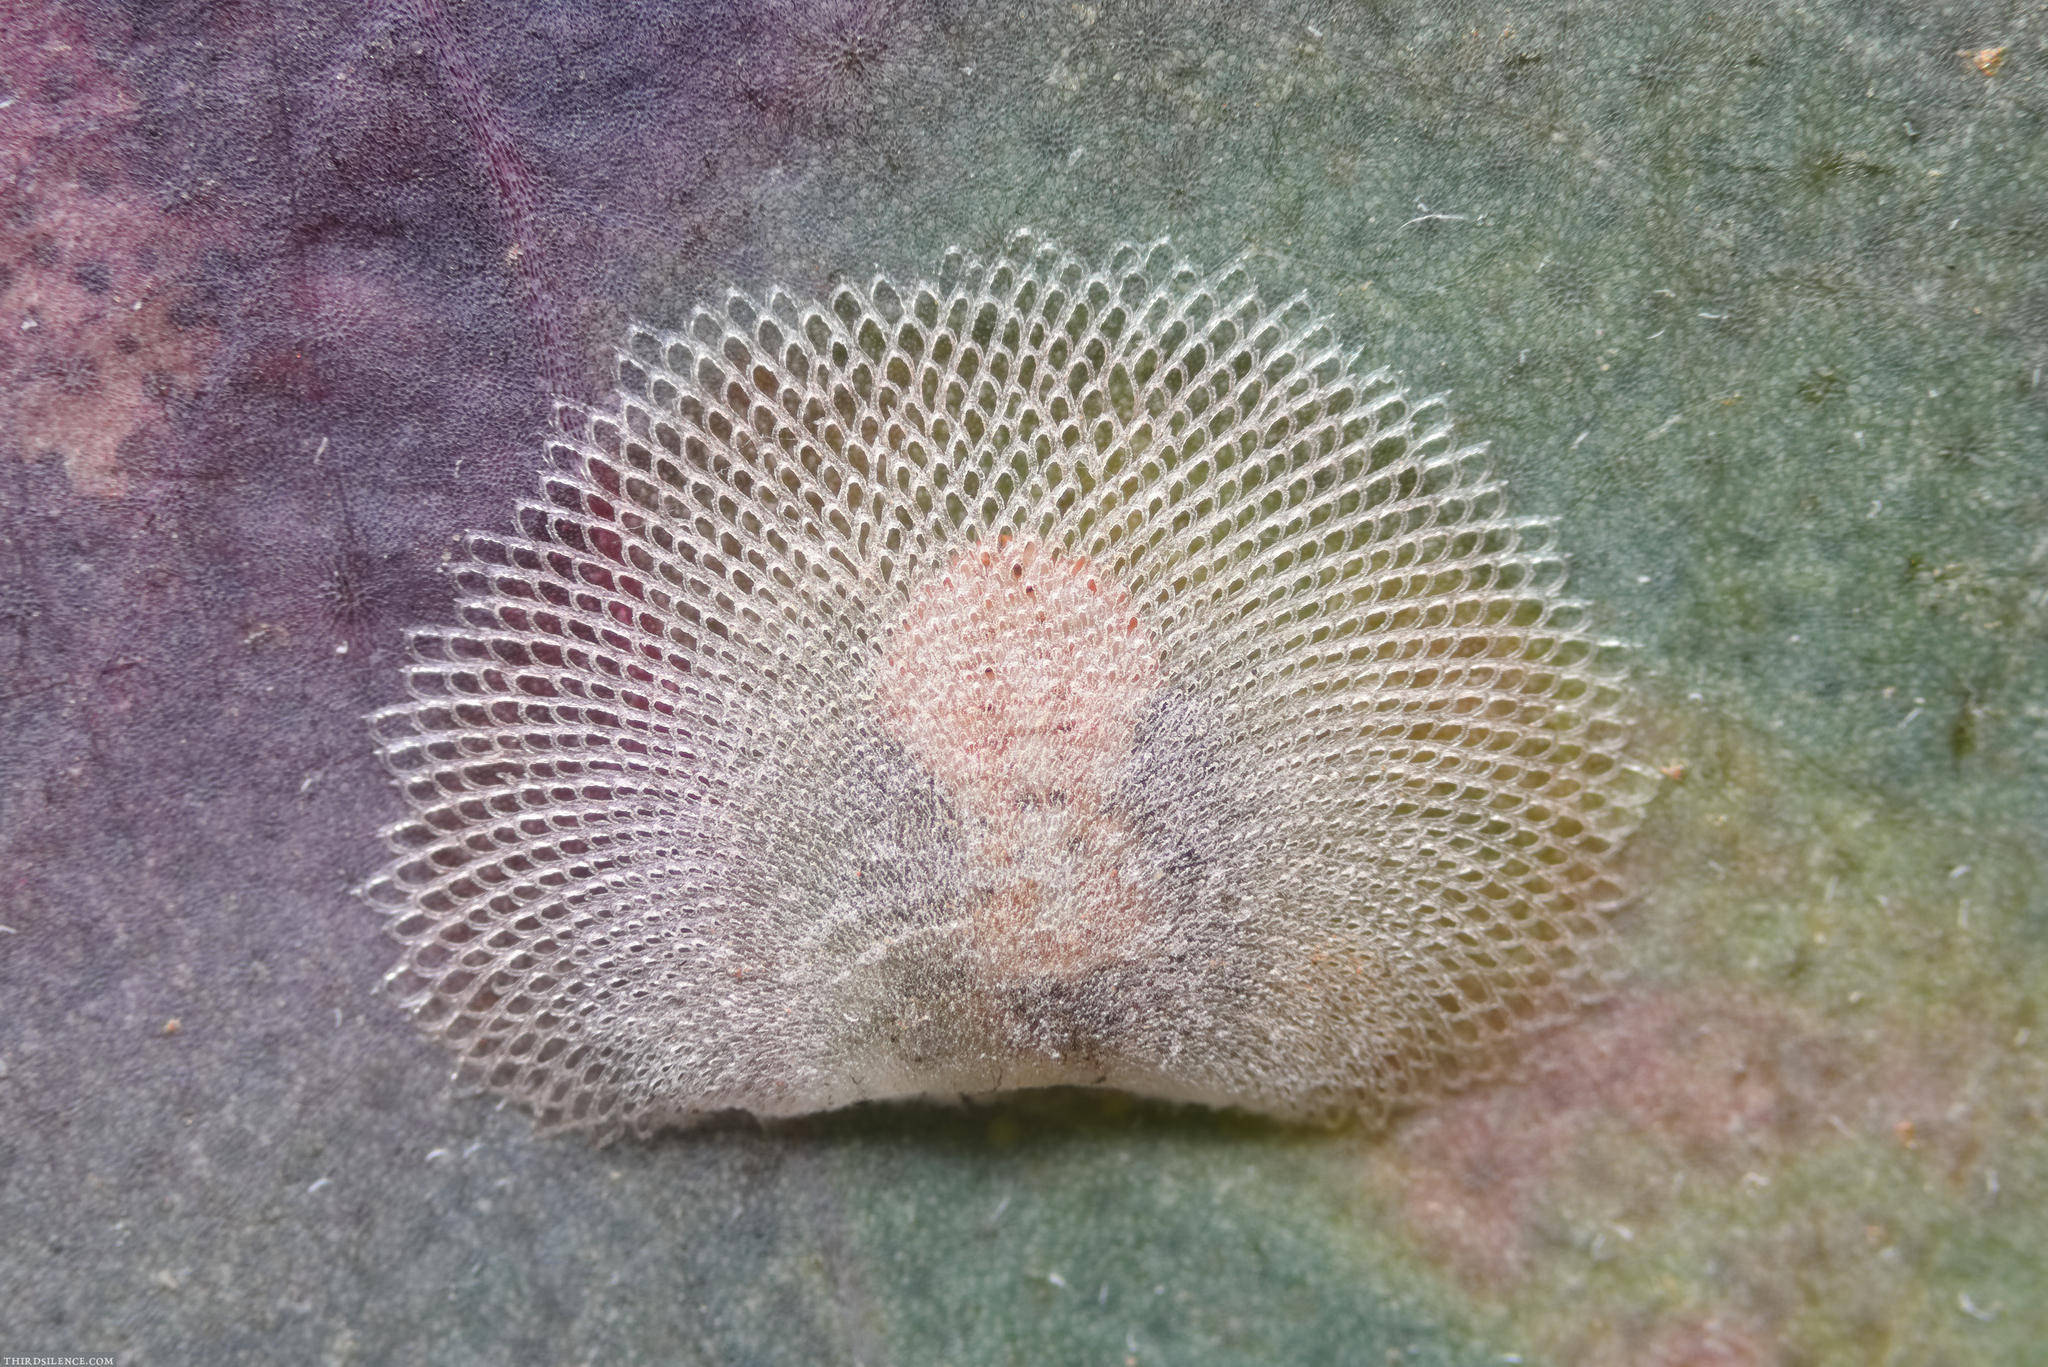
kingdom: Animalia
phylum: Arthropoda
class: Insecta
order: Hemiptera
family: Aphalaridae
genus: Cardiaspina
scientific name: Cardiaspina albitextura
